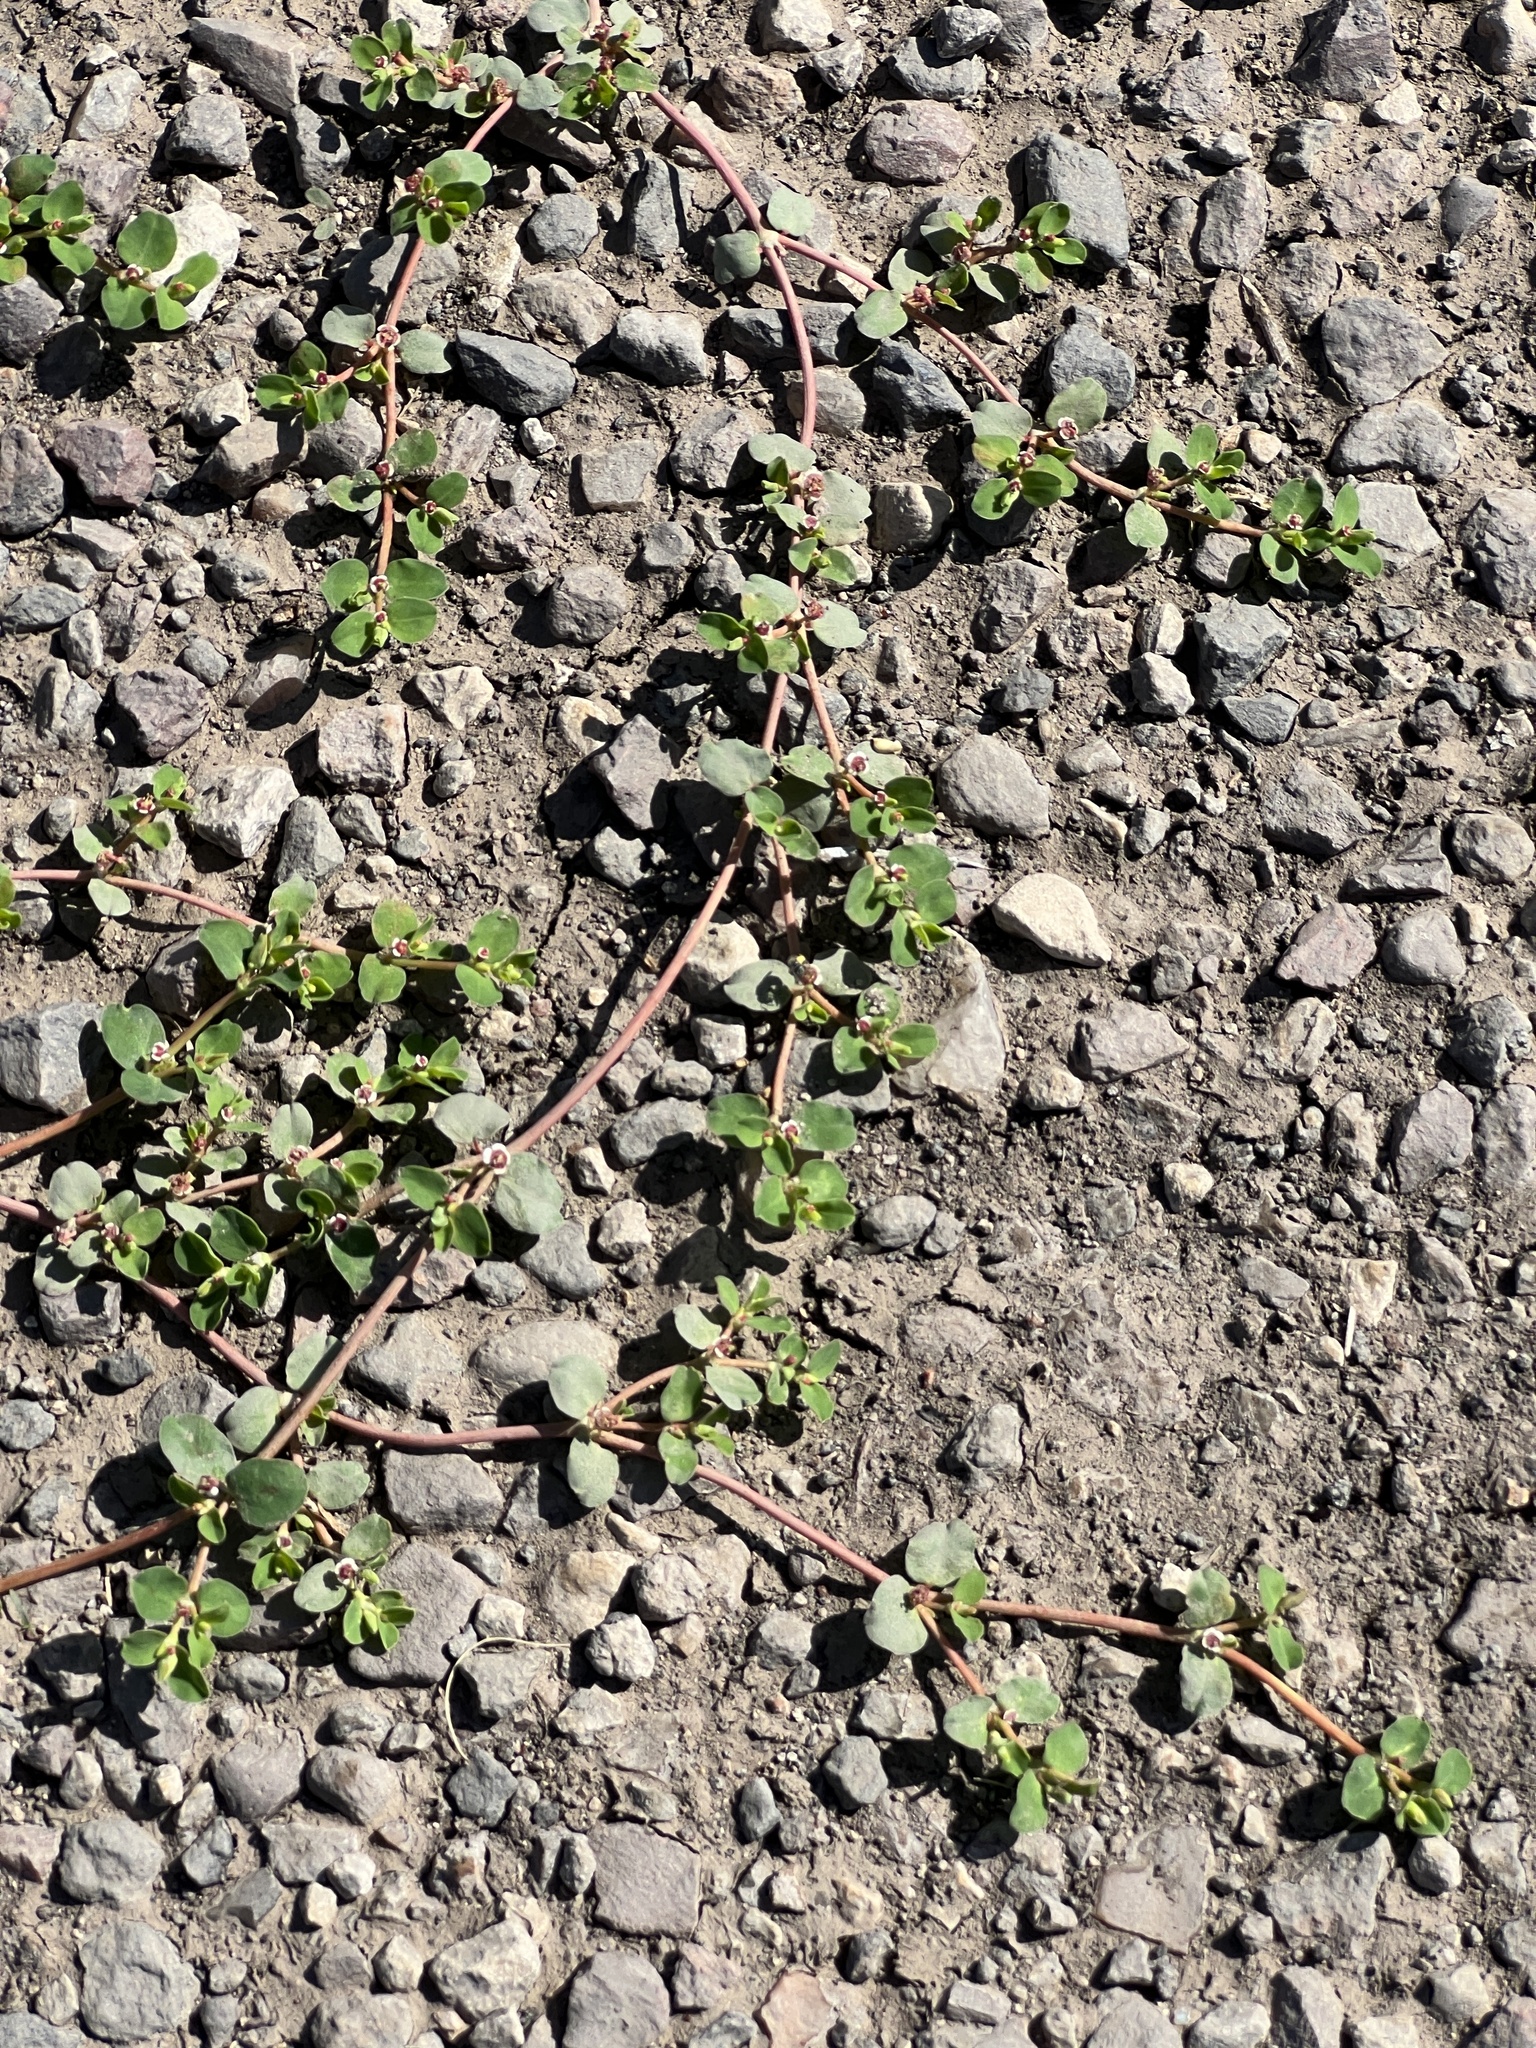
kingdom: Plantae
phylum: Tracheophyta
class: Magnoliopsida
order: Malpighiales
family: Euphorbiaceae
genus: Euphorbia
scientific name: Euphorbia albomarginata
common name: Whitemargin sandmat
